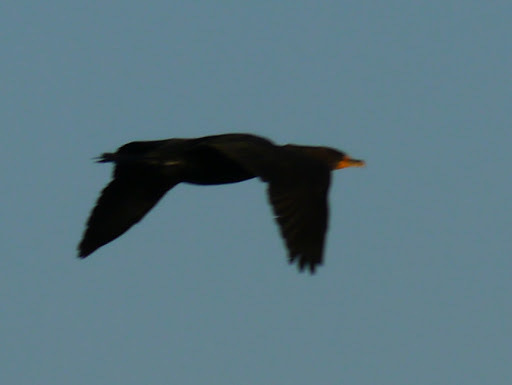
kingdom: Animalia
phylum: Chordata
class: Aves
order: Suliformes
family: Phalacrocoracidae
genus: Phalacrocorax
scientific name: Phalacrocorax auritus
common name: Double-crested cormorant
